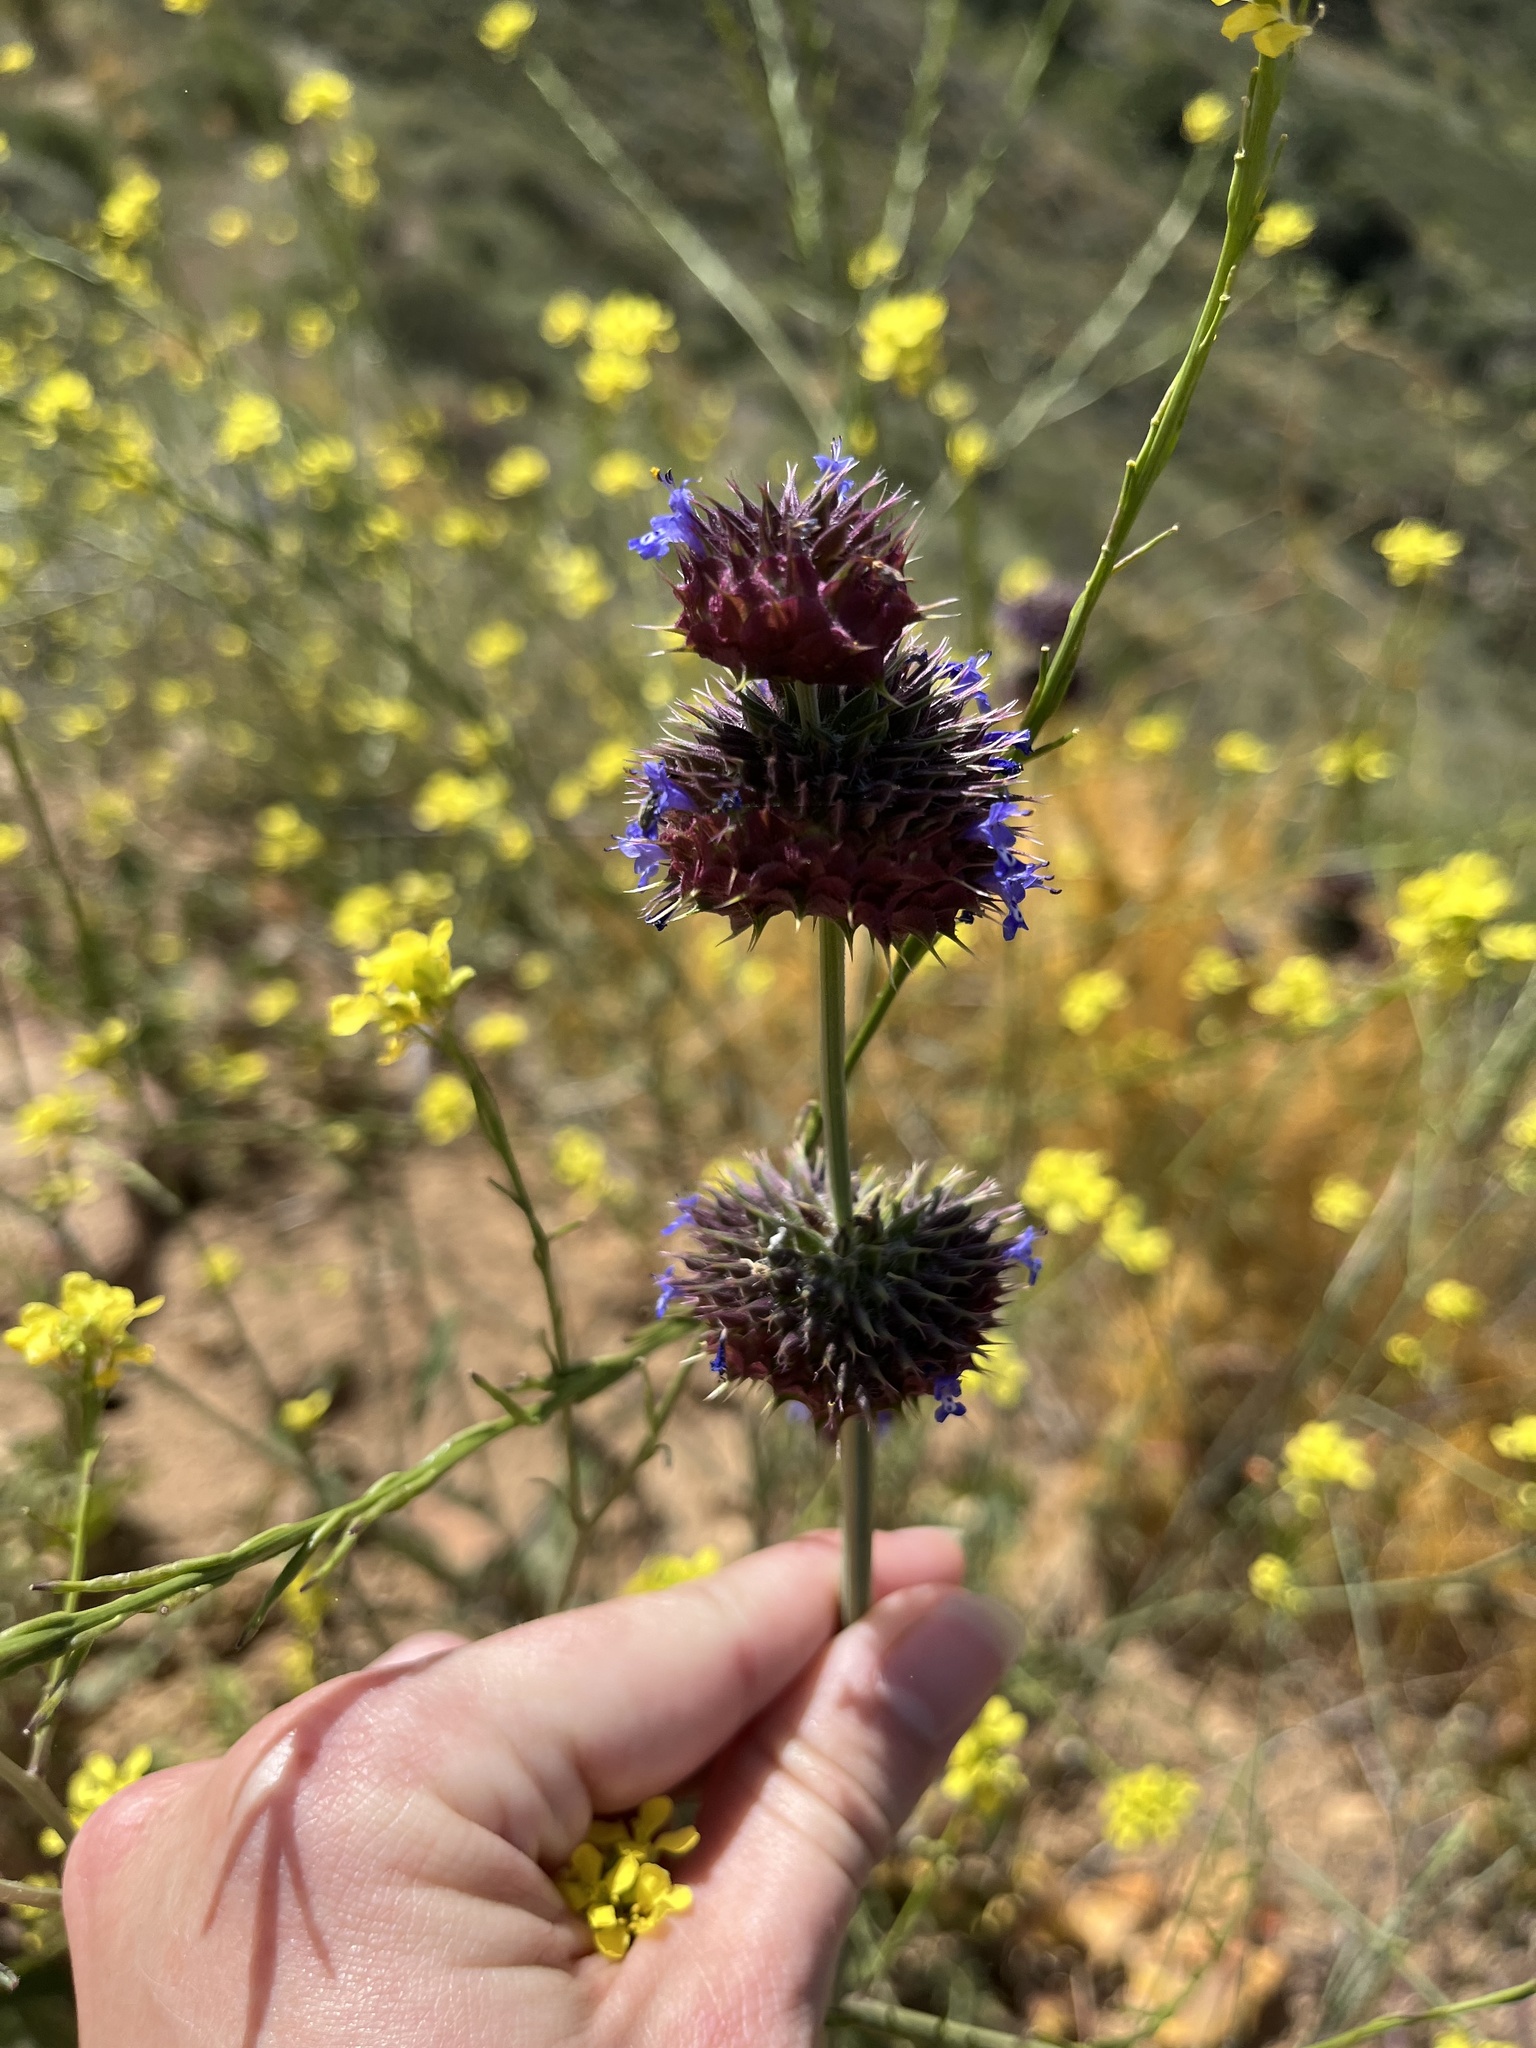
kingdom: Plantae
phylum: Tracheophyta
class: Magnoliopsida
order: Lamiales
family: Lamiaceae
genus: Salvia
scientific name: Salvia columbariae
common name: Chia
